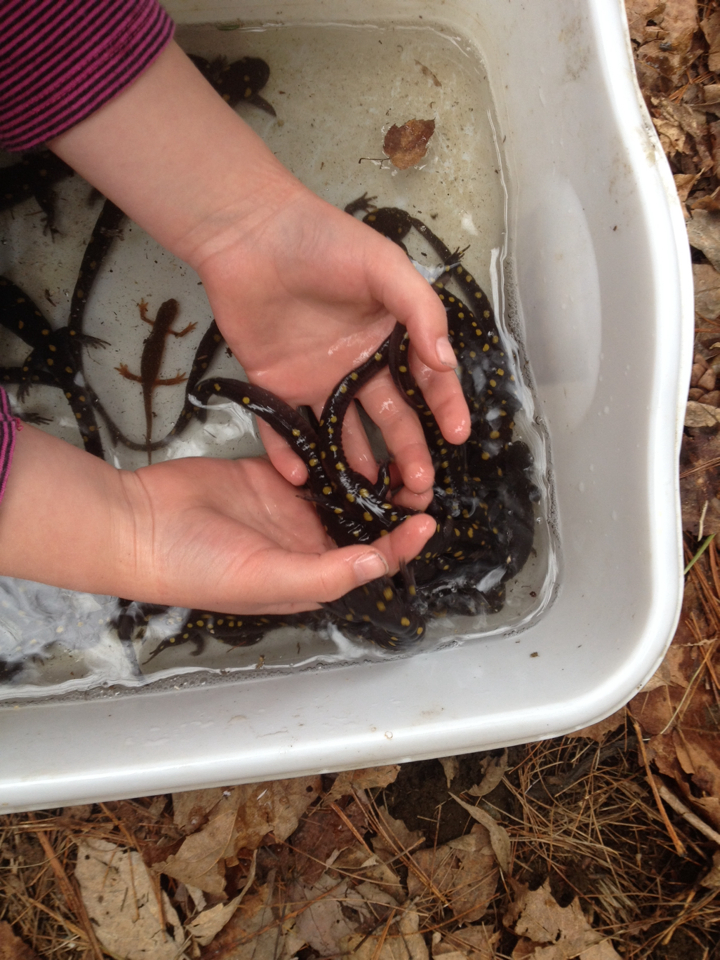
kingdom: Animalia
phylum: Chordata
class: Amphibia
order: Caudata
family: Ambystomatidae
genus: Ambystoma
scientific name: Ambystoma maculatum
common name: Spotted salamander
